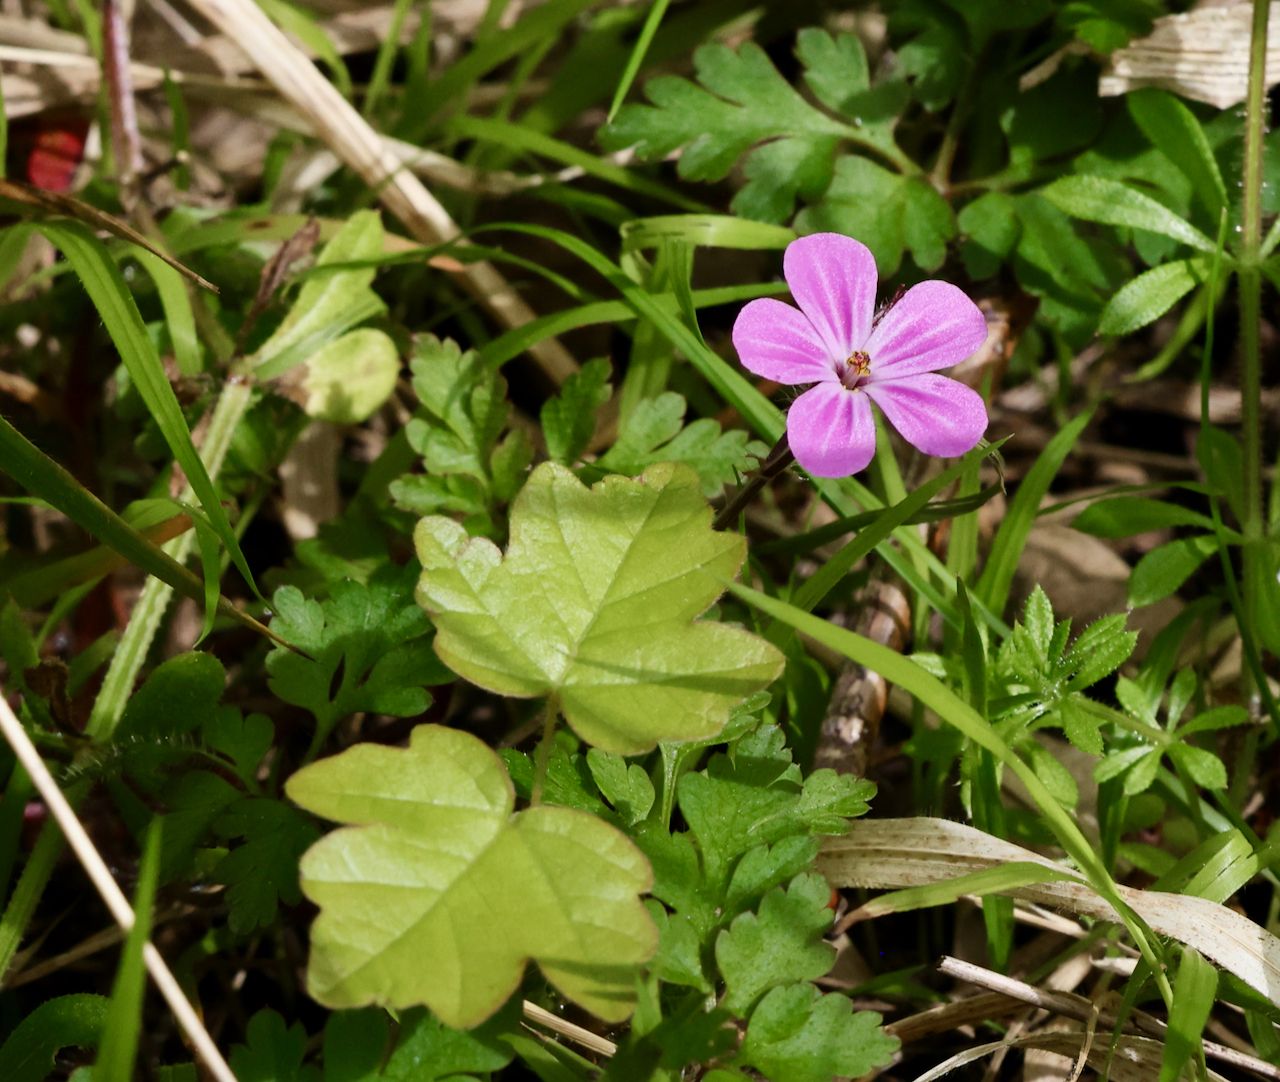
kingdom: Plantae
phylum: Tracheophyta
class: Magnoliopsida
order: Geraniales
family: Geraniaceae
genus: Geranium
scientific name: Geranium robertianum
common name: Herb-robert
